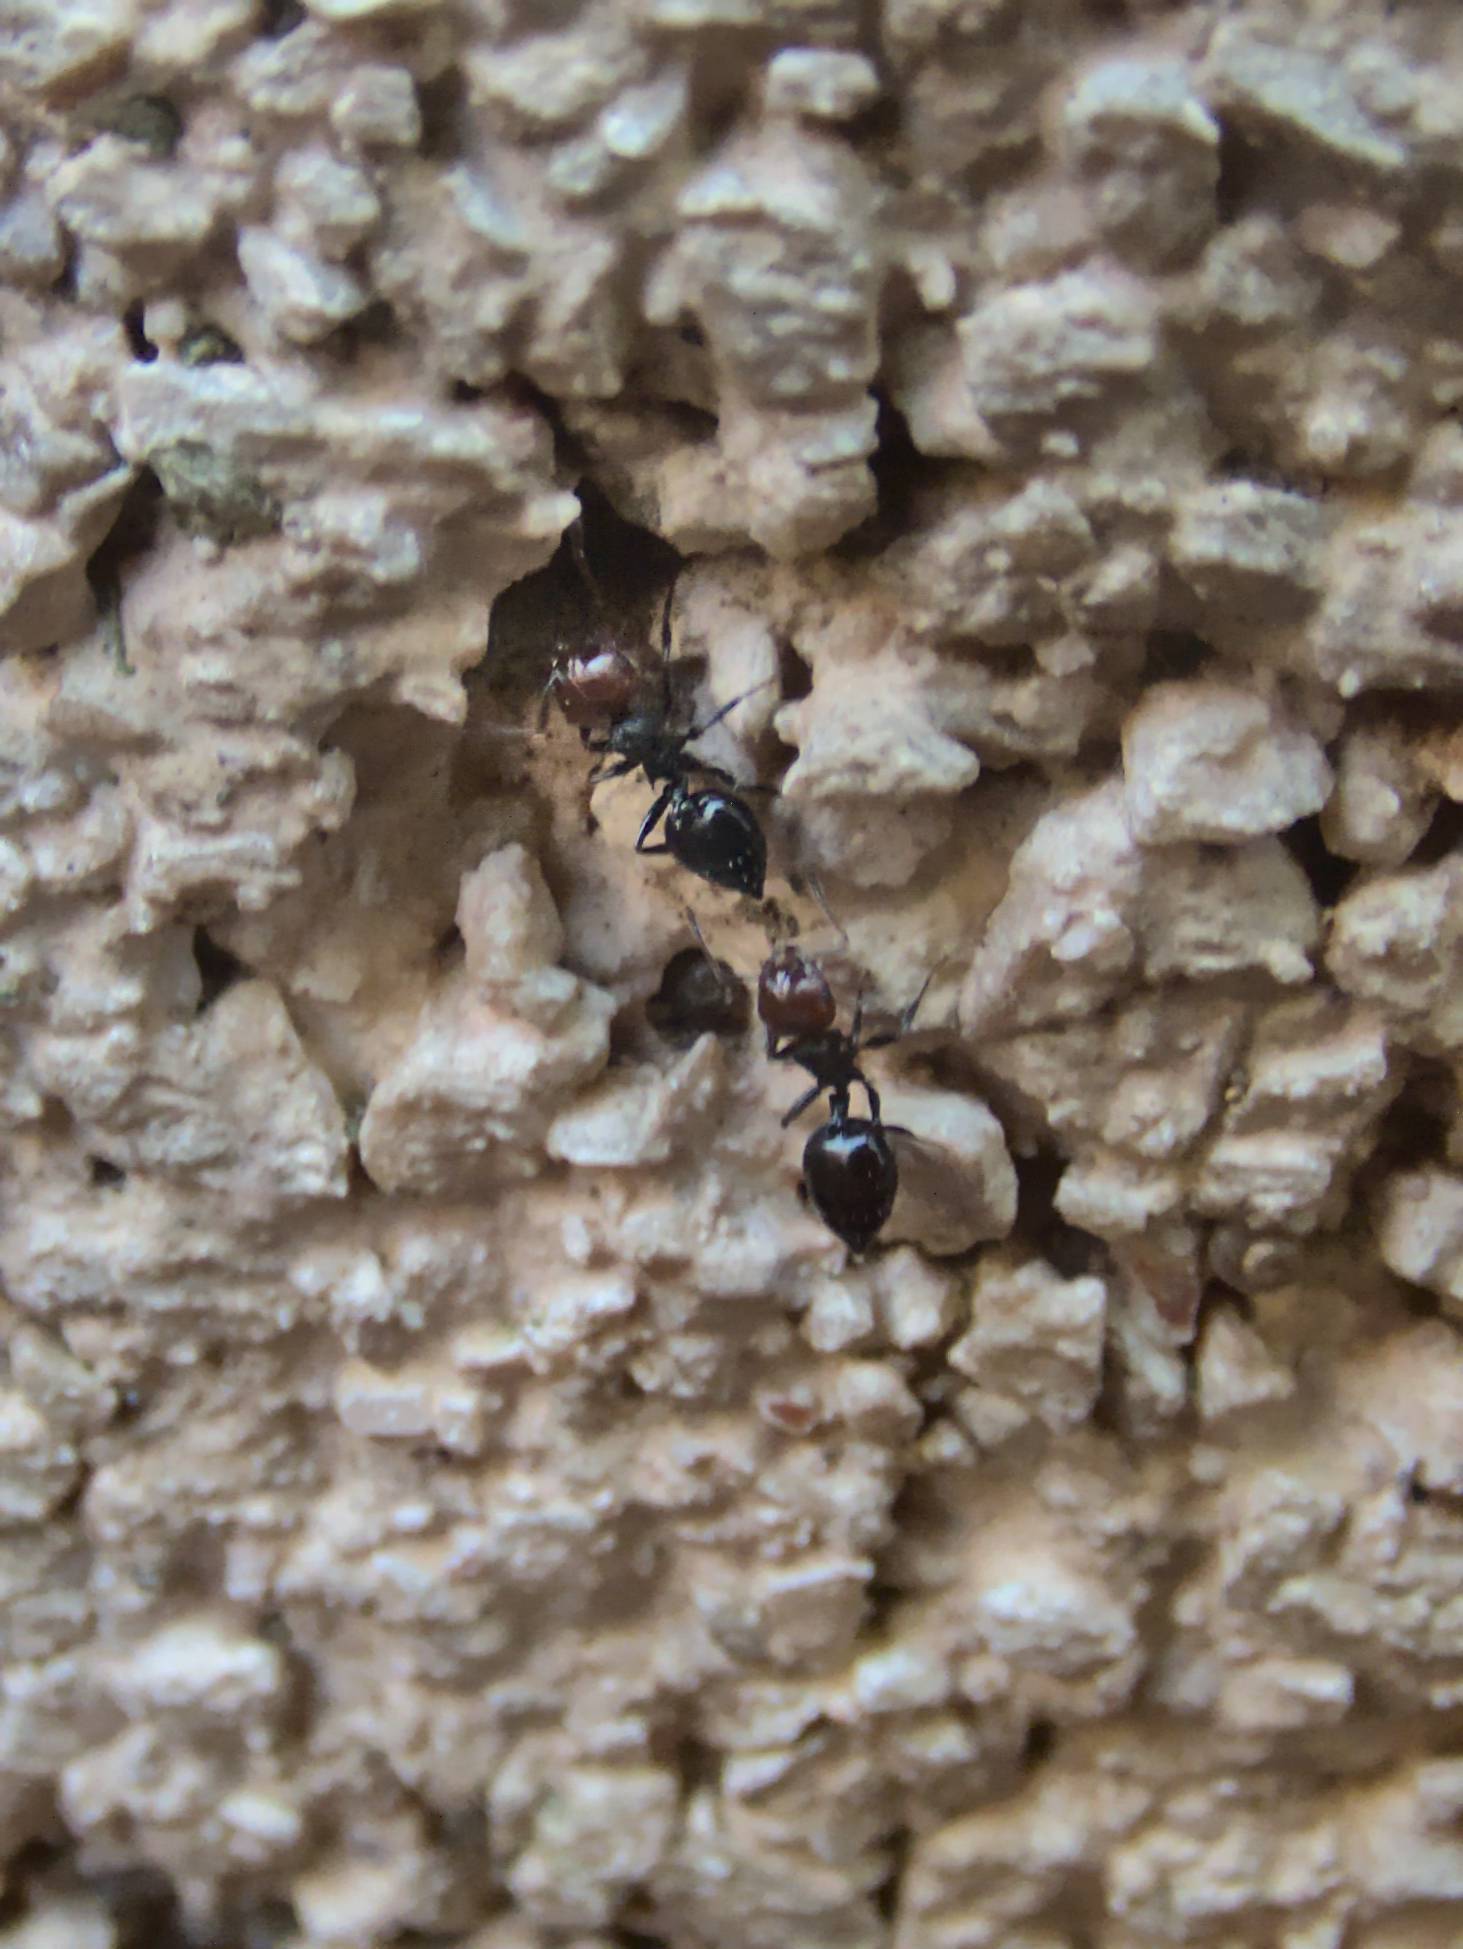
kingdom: Animalia
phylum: Arthropoda
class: Insecta
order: Hymenoptera
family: Formicidae
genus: Crematogaster
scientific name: Crematogaster scutellaris
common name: Fourmi du liège
